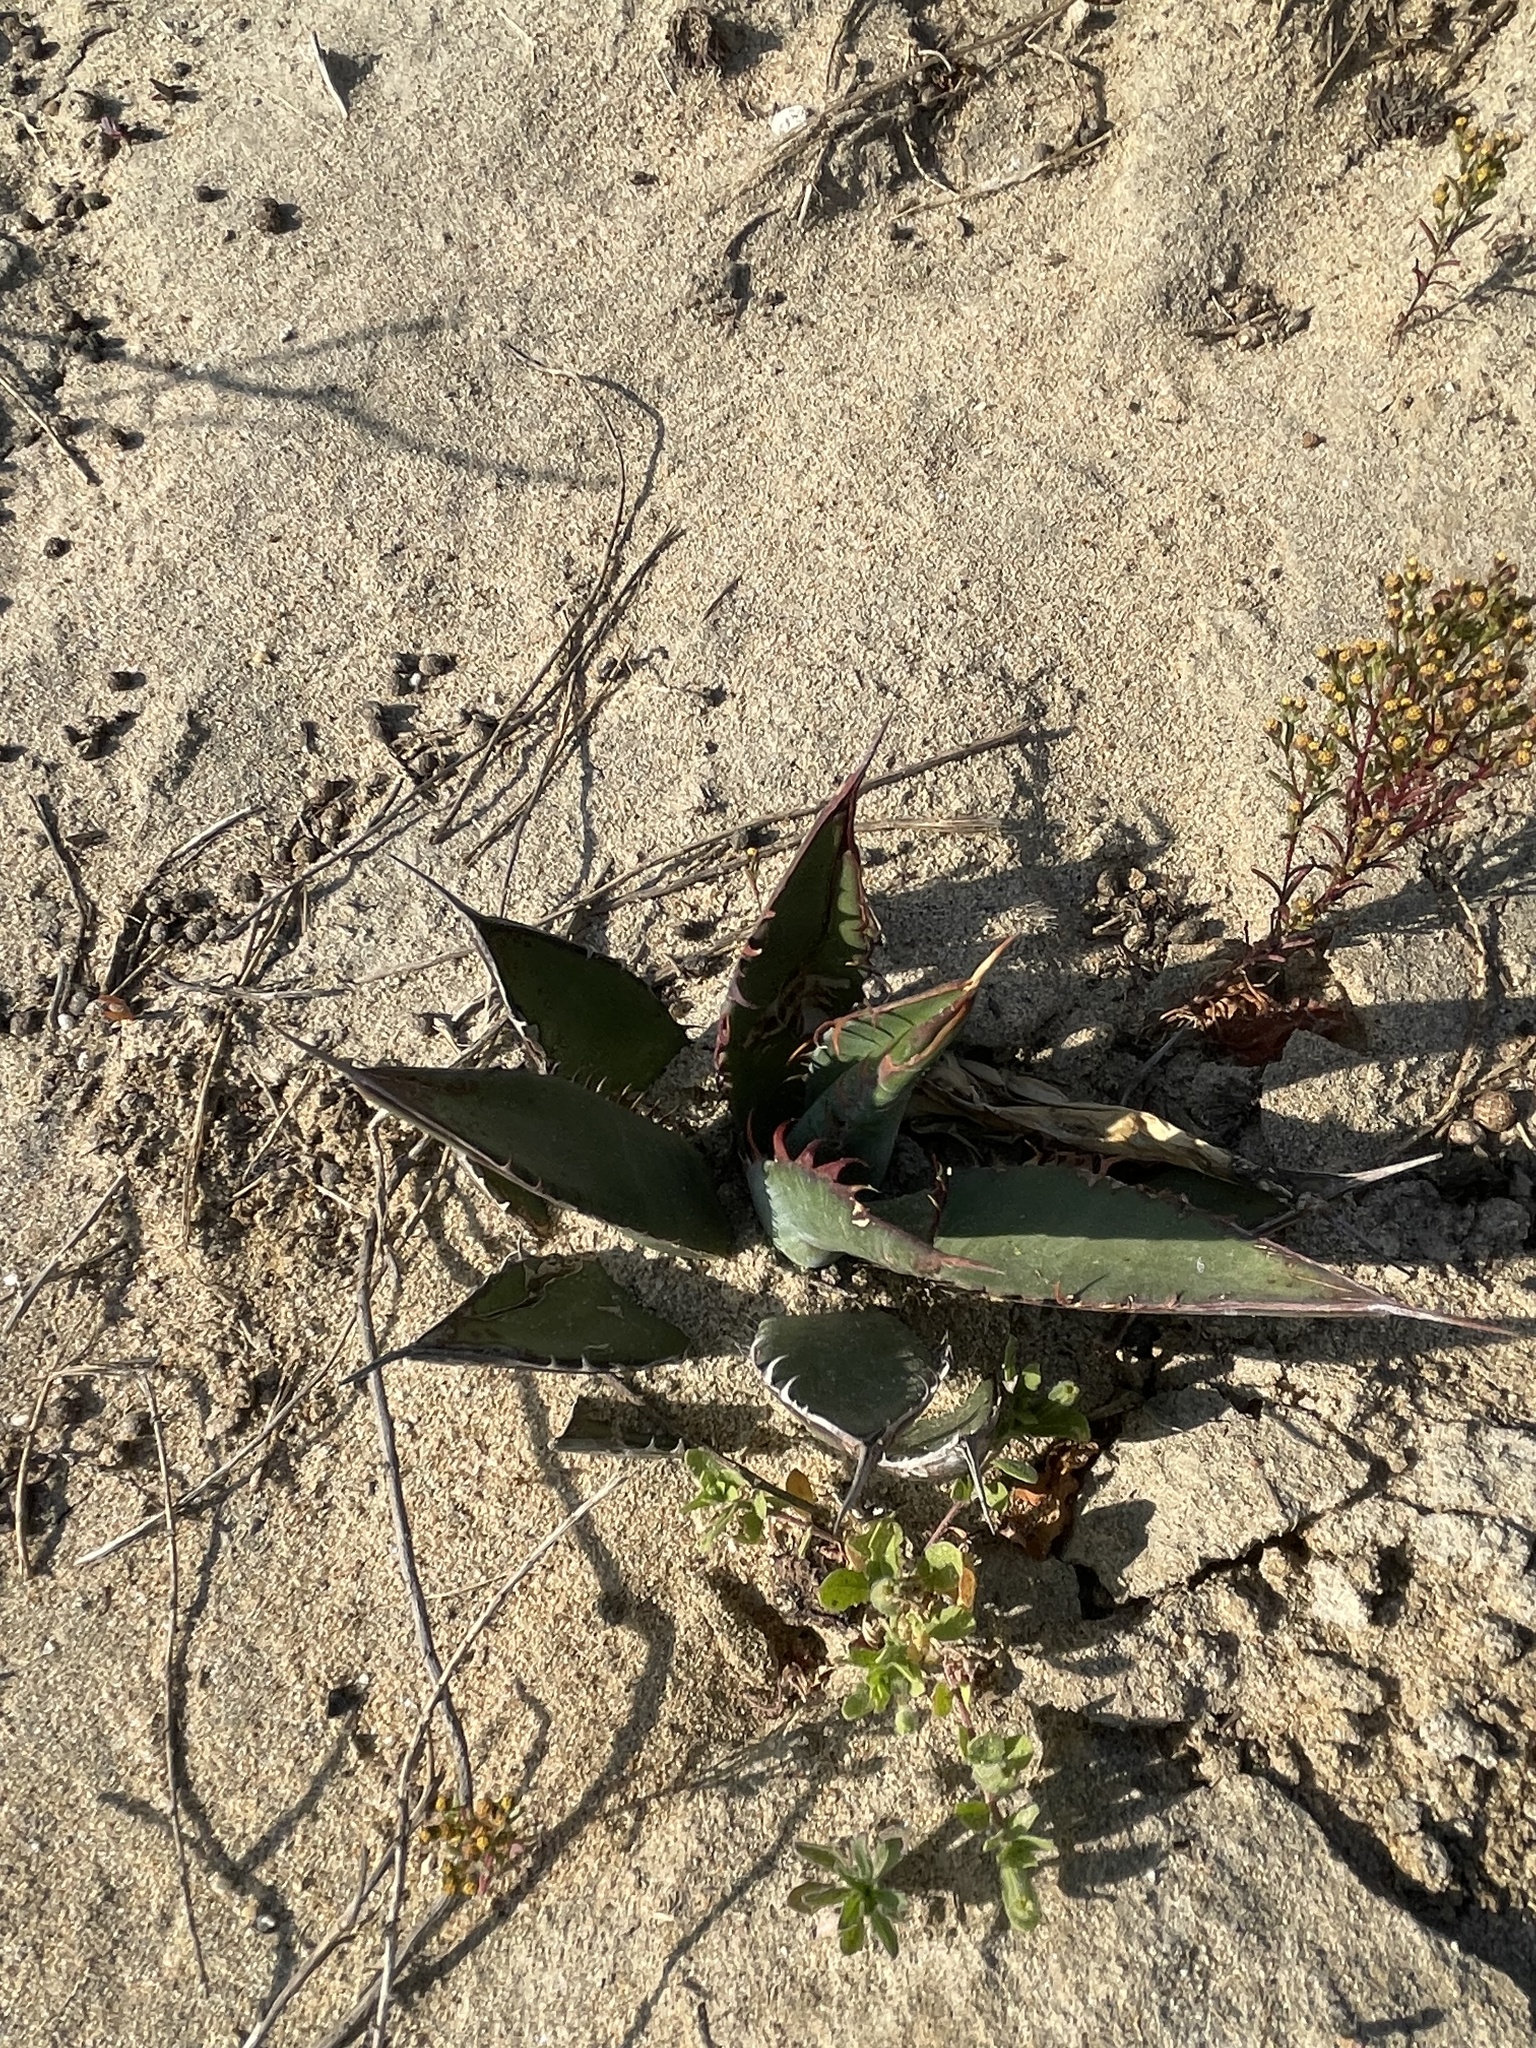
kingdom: Plantae
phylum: Tracheophyta
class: Liliopsida
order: Asparagales
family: Asparagaceae
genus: Agave
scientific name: Agave shawii
